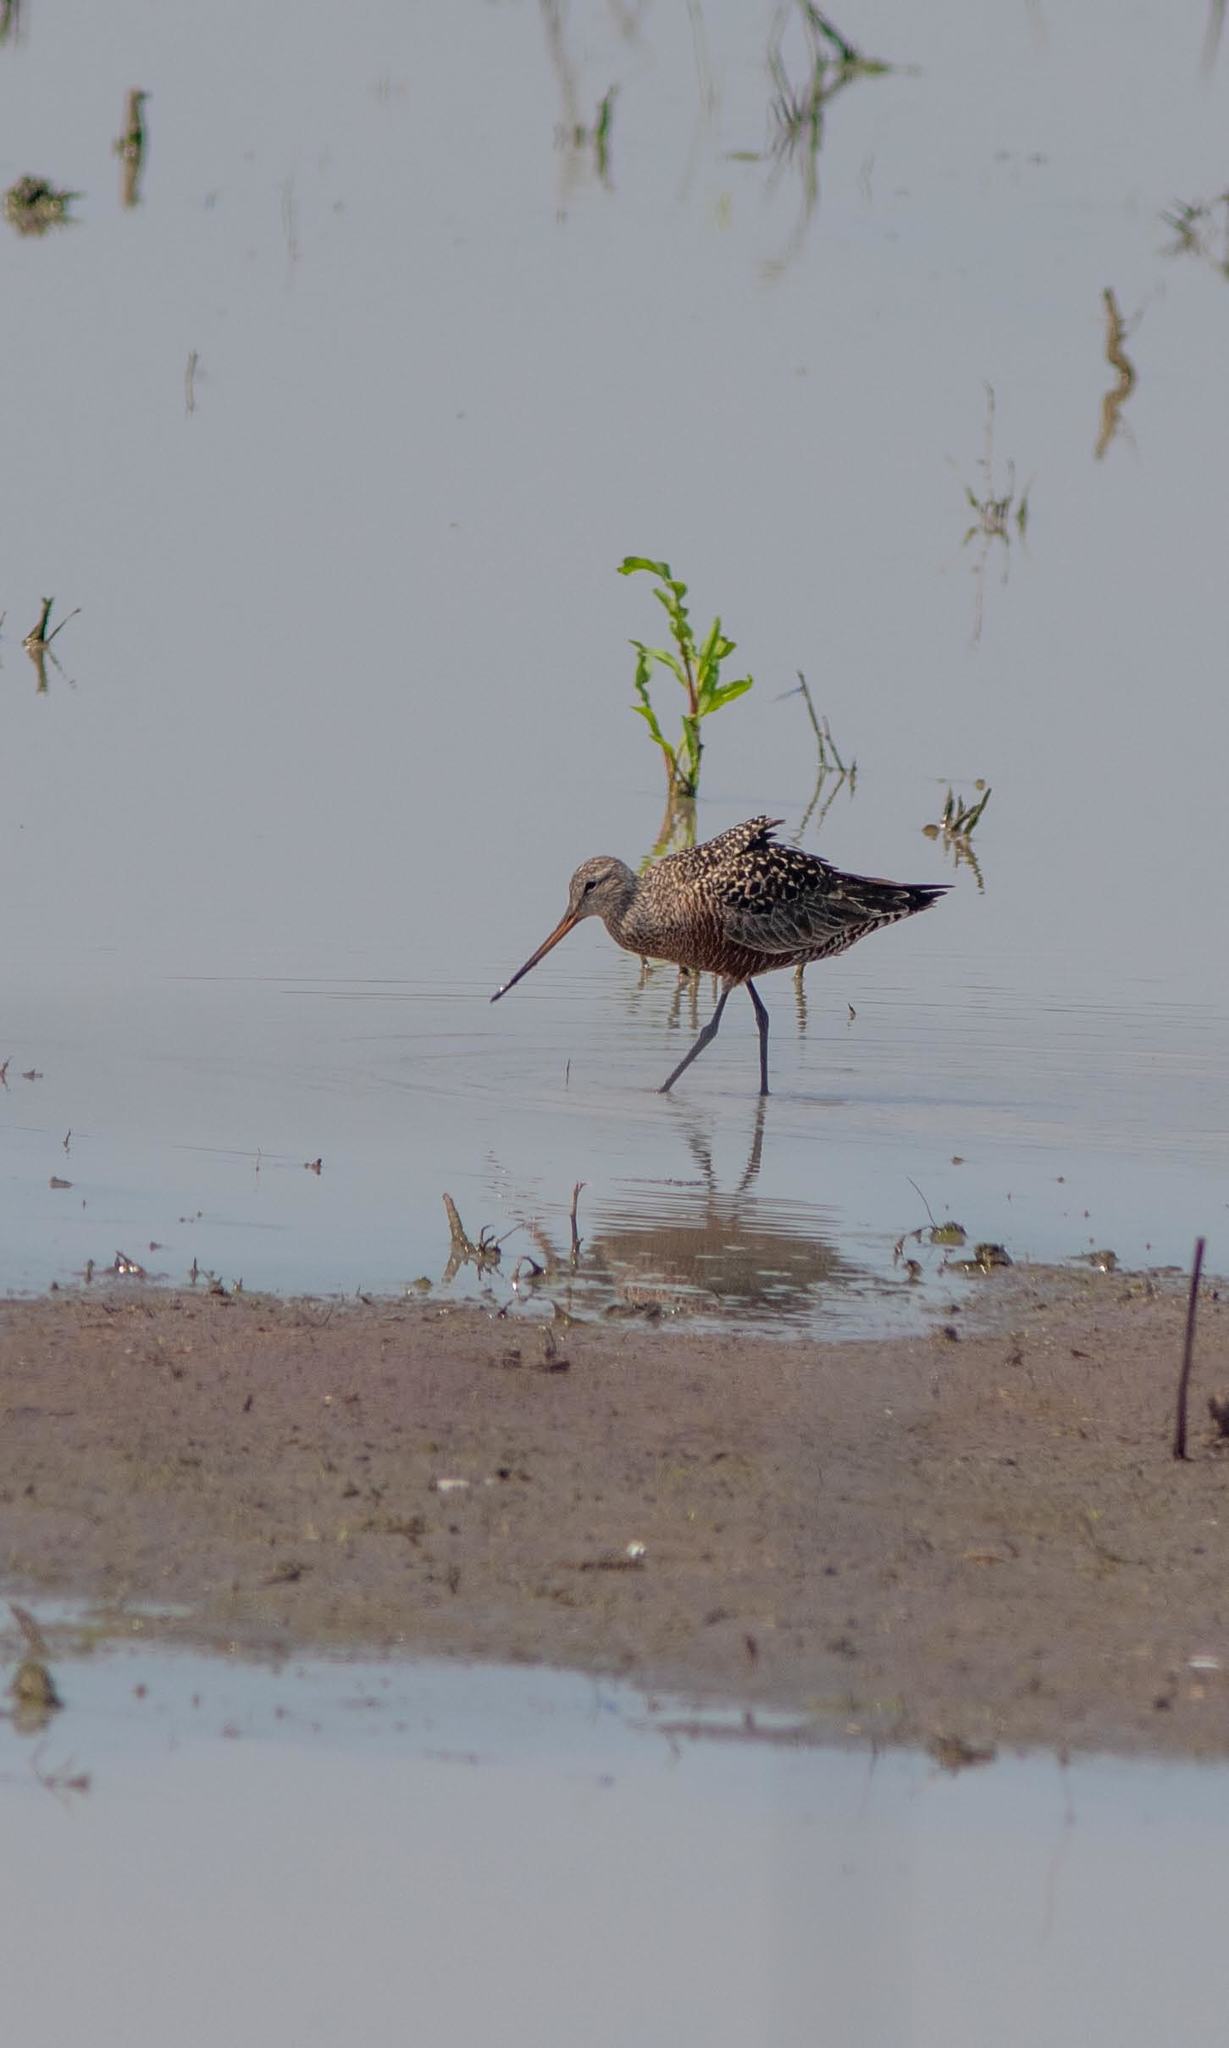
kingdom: Animalia
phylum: Chordata
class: Aves
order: Charadriiformes
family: Scolopacidae
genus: Limosa
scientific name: Limosa haemastica
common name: Hudsonian godwit
